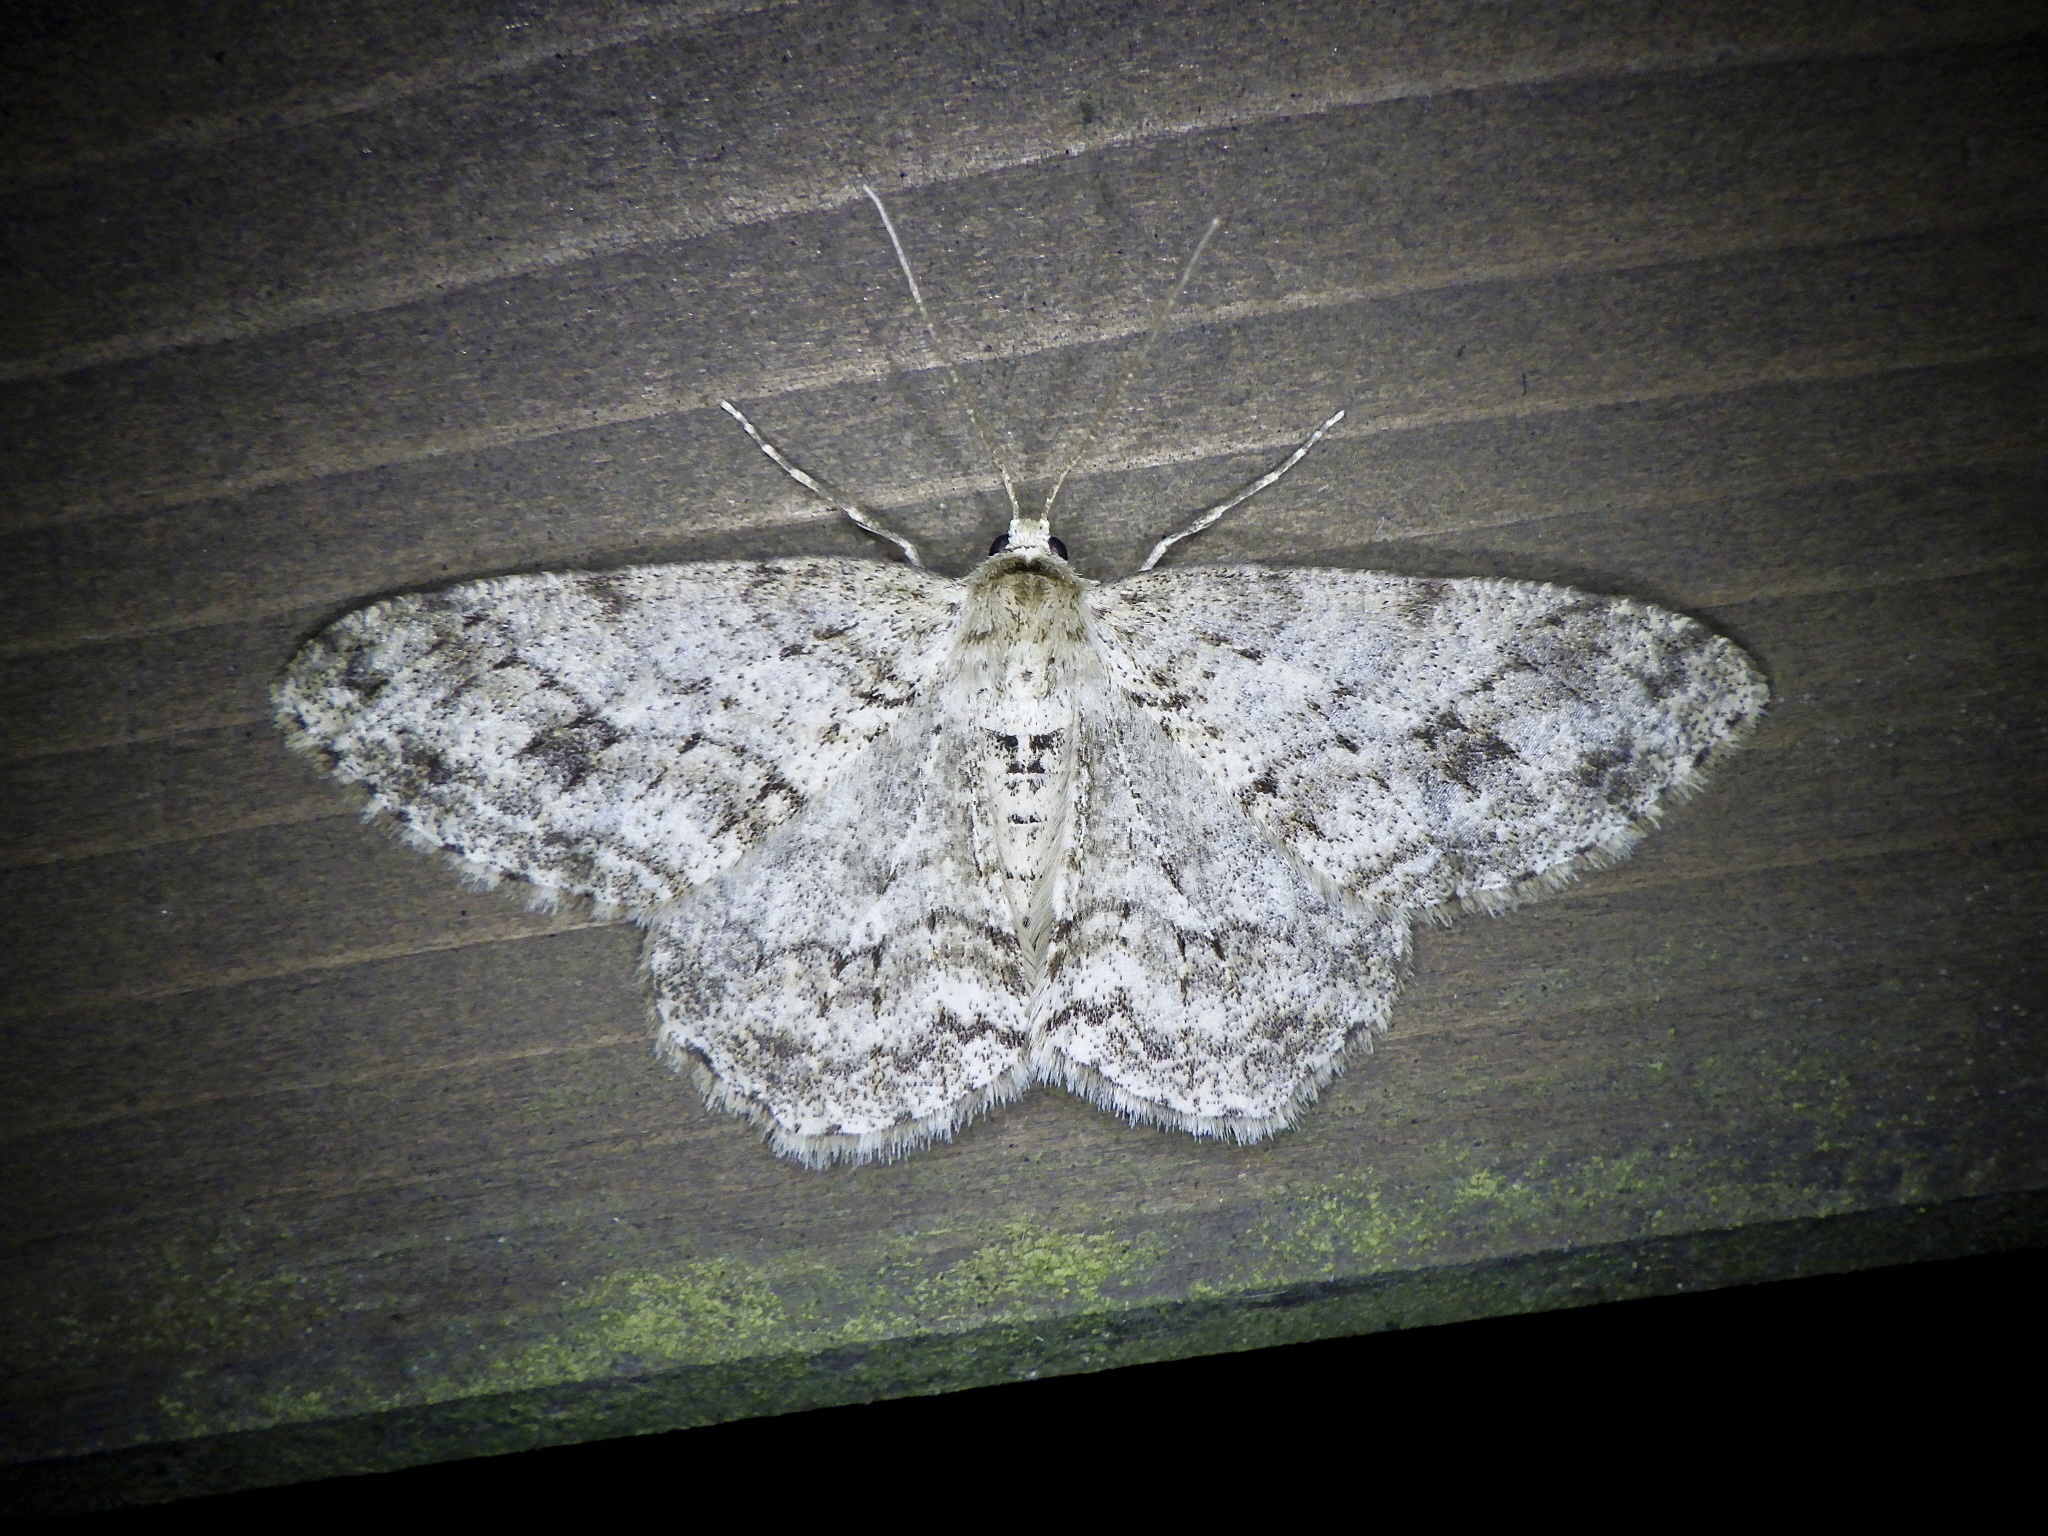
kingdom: Animalia
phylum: Arthropoda
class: Insecta
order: Lepidoptera
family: Geometridae
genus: Ectropis
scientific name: Ectropis crepuscularia
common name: Engrailed
